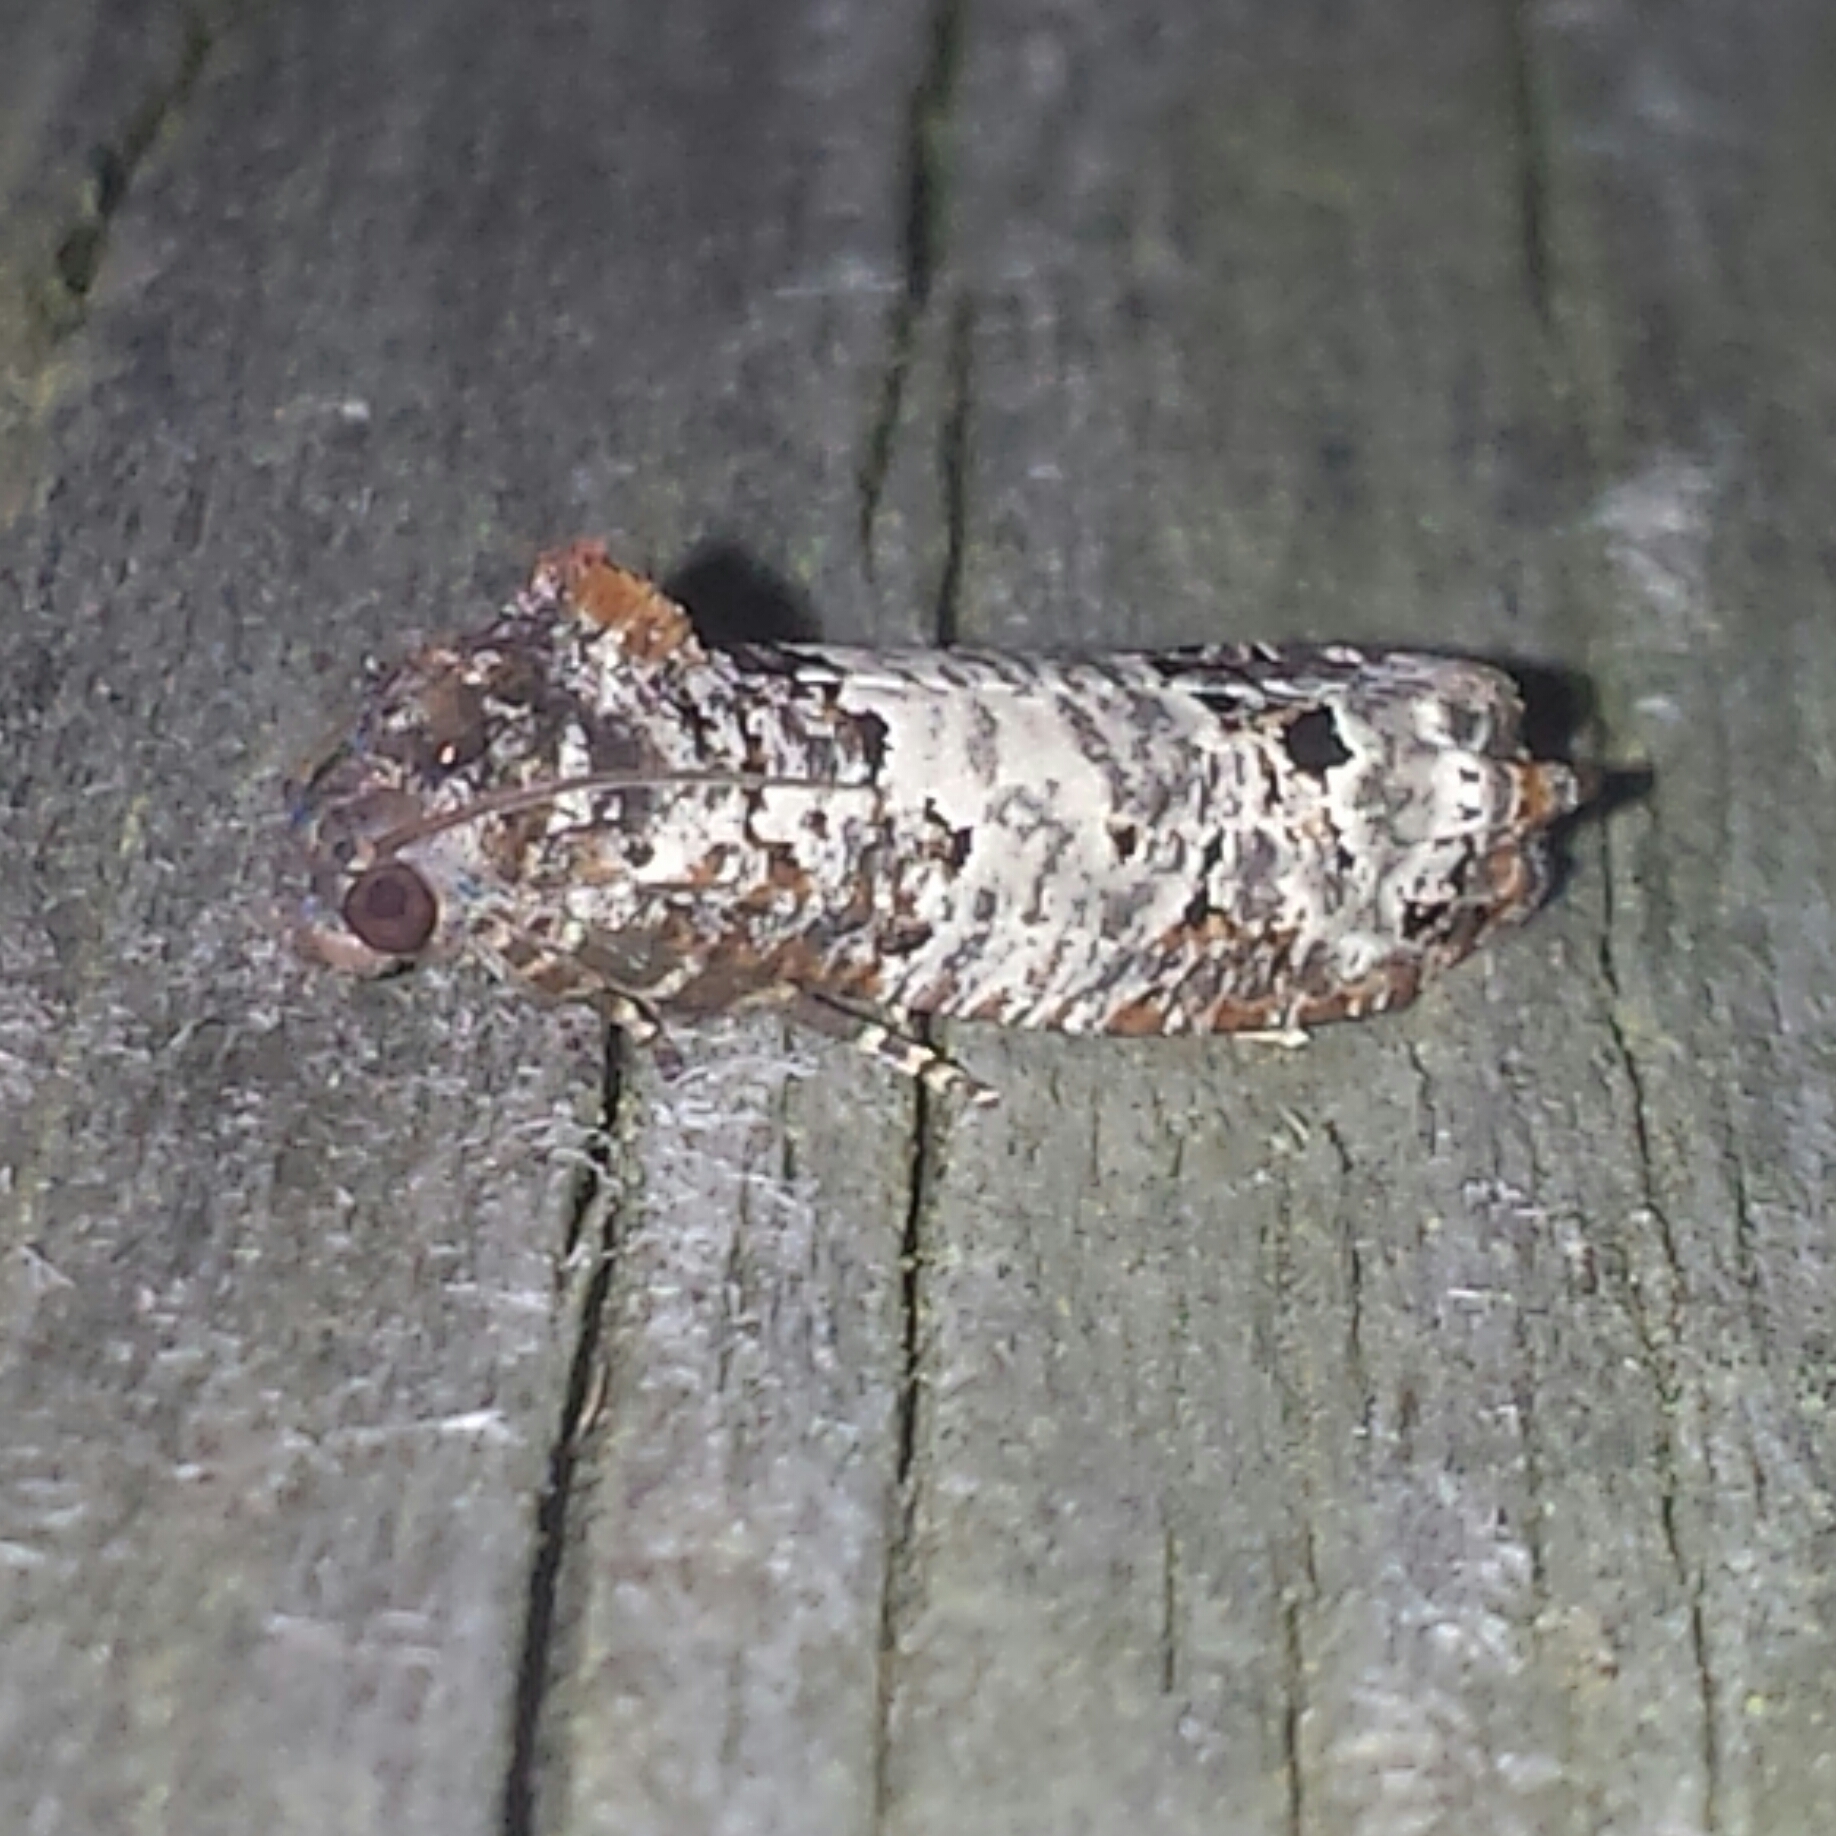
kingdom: Animalia
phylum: Arthropoda
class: Insecta
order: Lepidoptera
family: Tortricidae
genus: Epiblema
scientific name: Epiblema carolinana
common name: Gray-blotched epiblema moth
